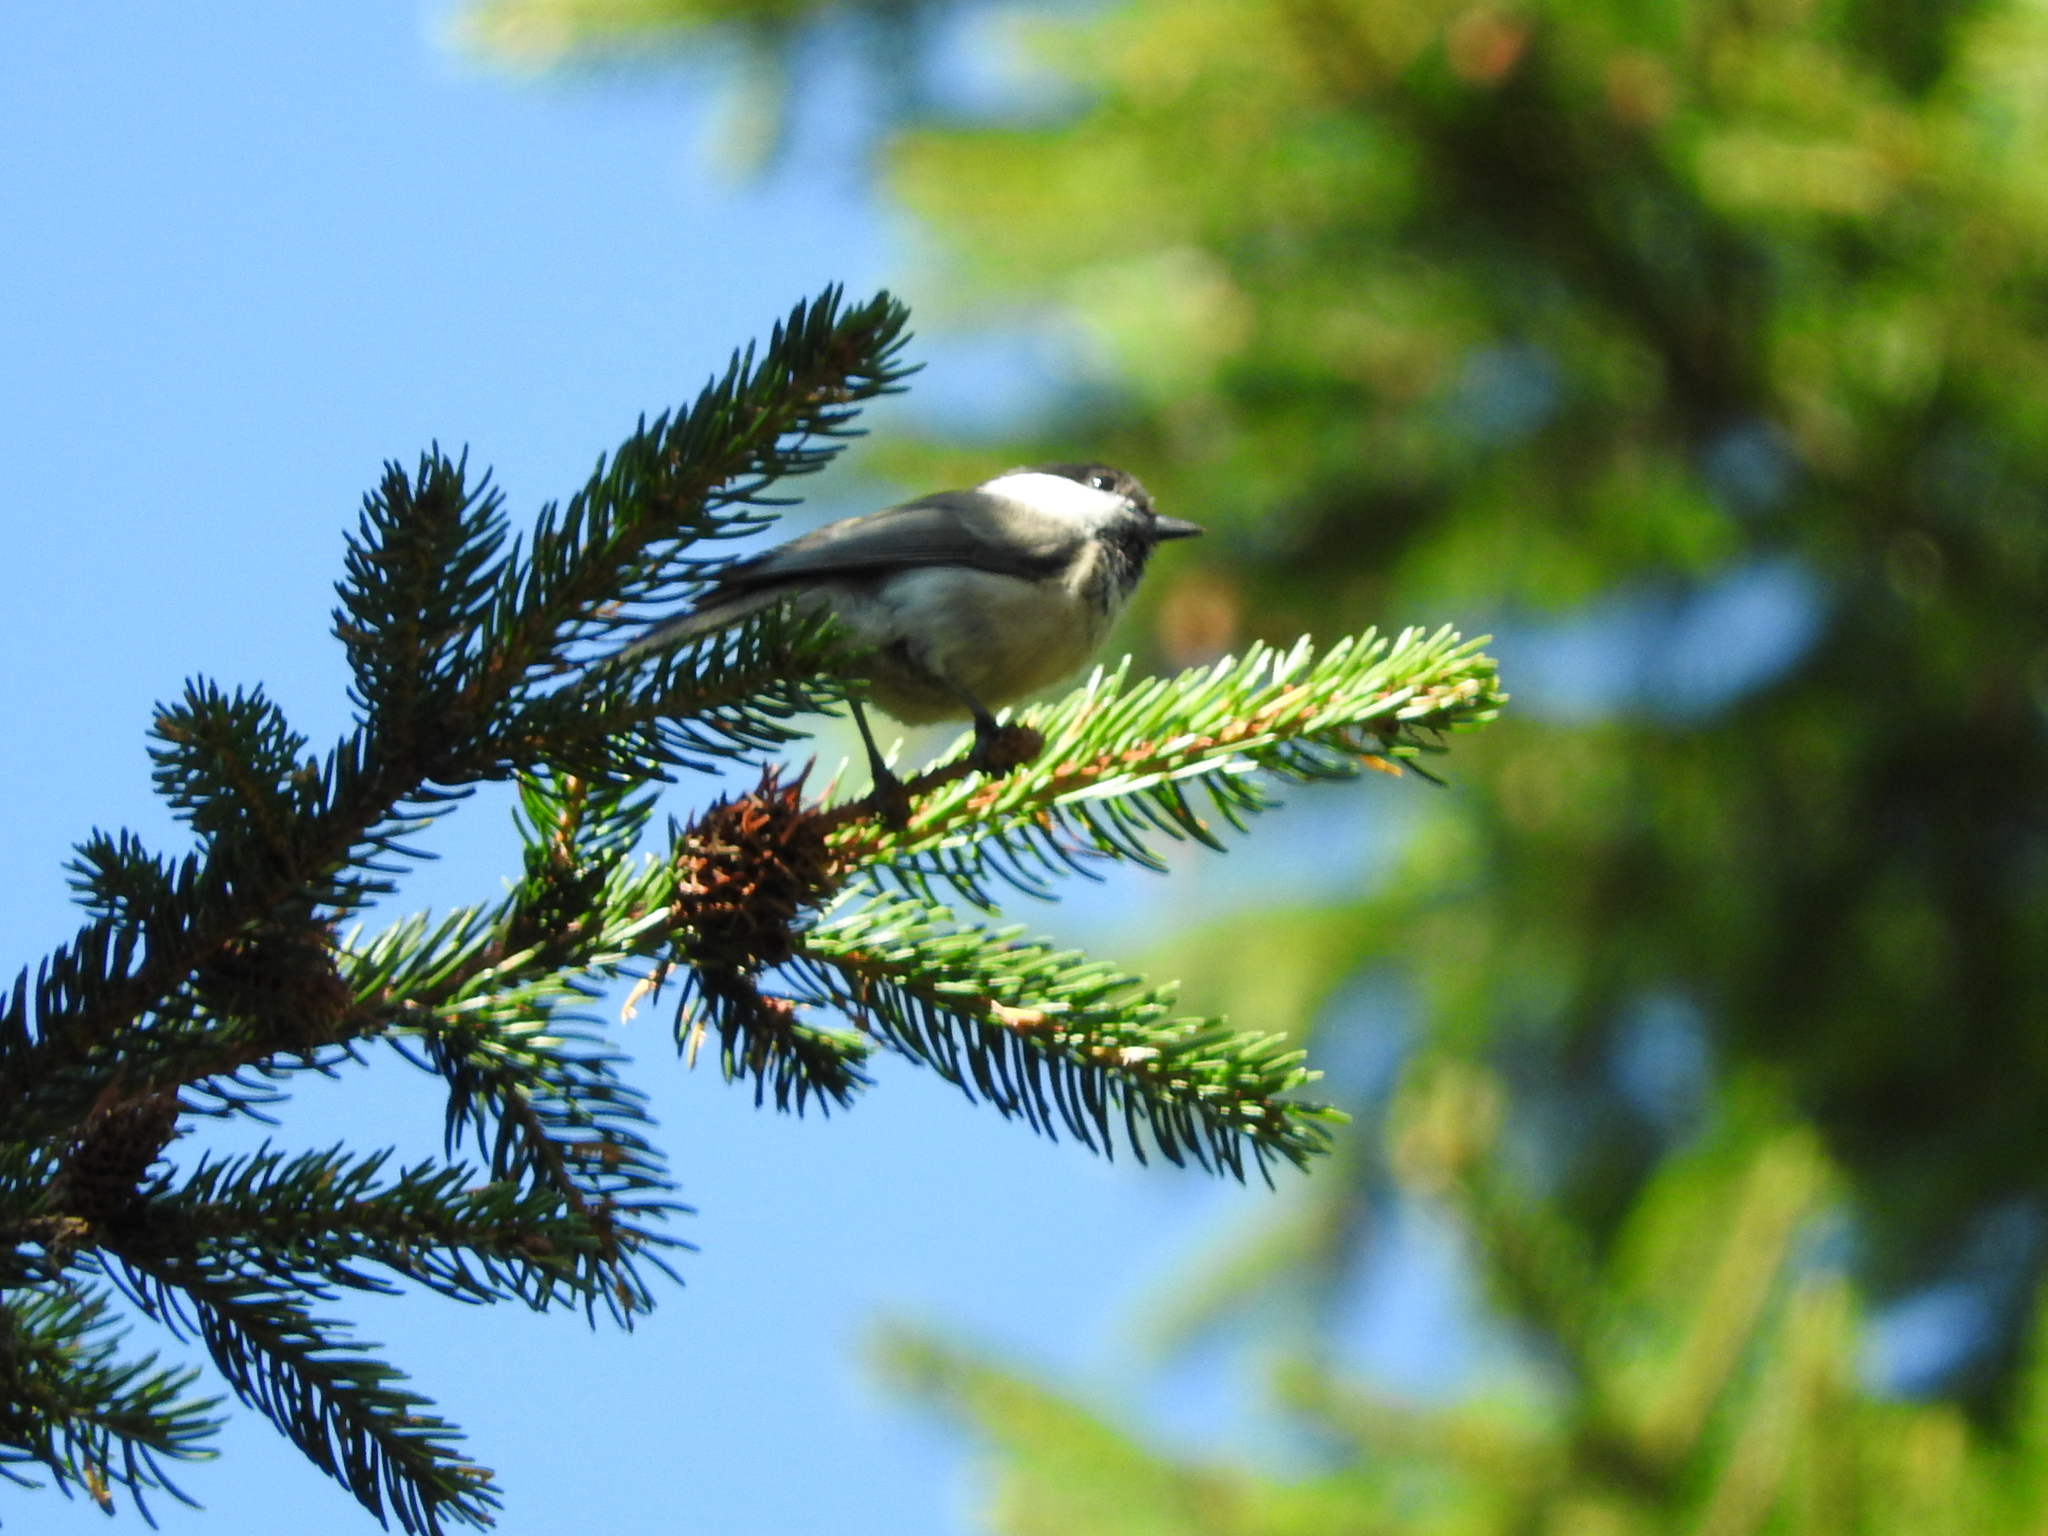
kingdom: Animalia
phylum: Chordata
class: Aves
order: Passeriformes
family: Paridae
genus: Poecile
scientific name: Poecile montanus
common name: Willow tit
